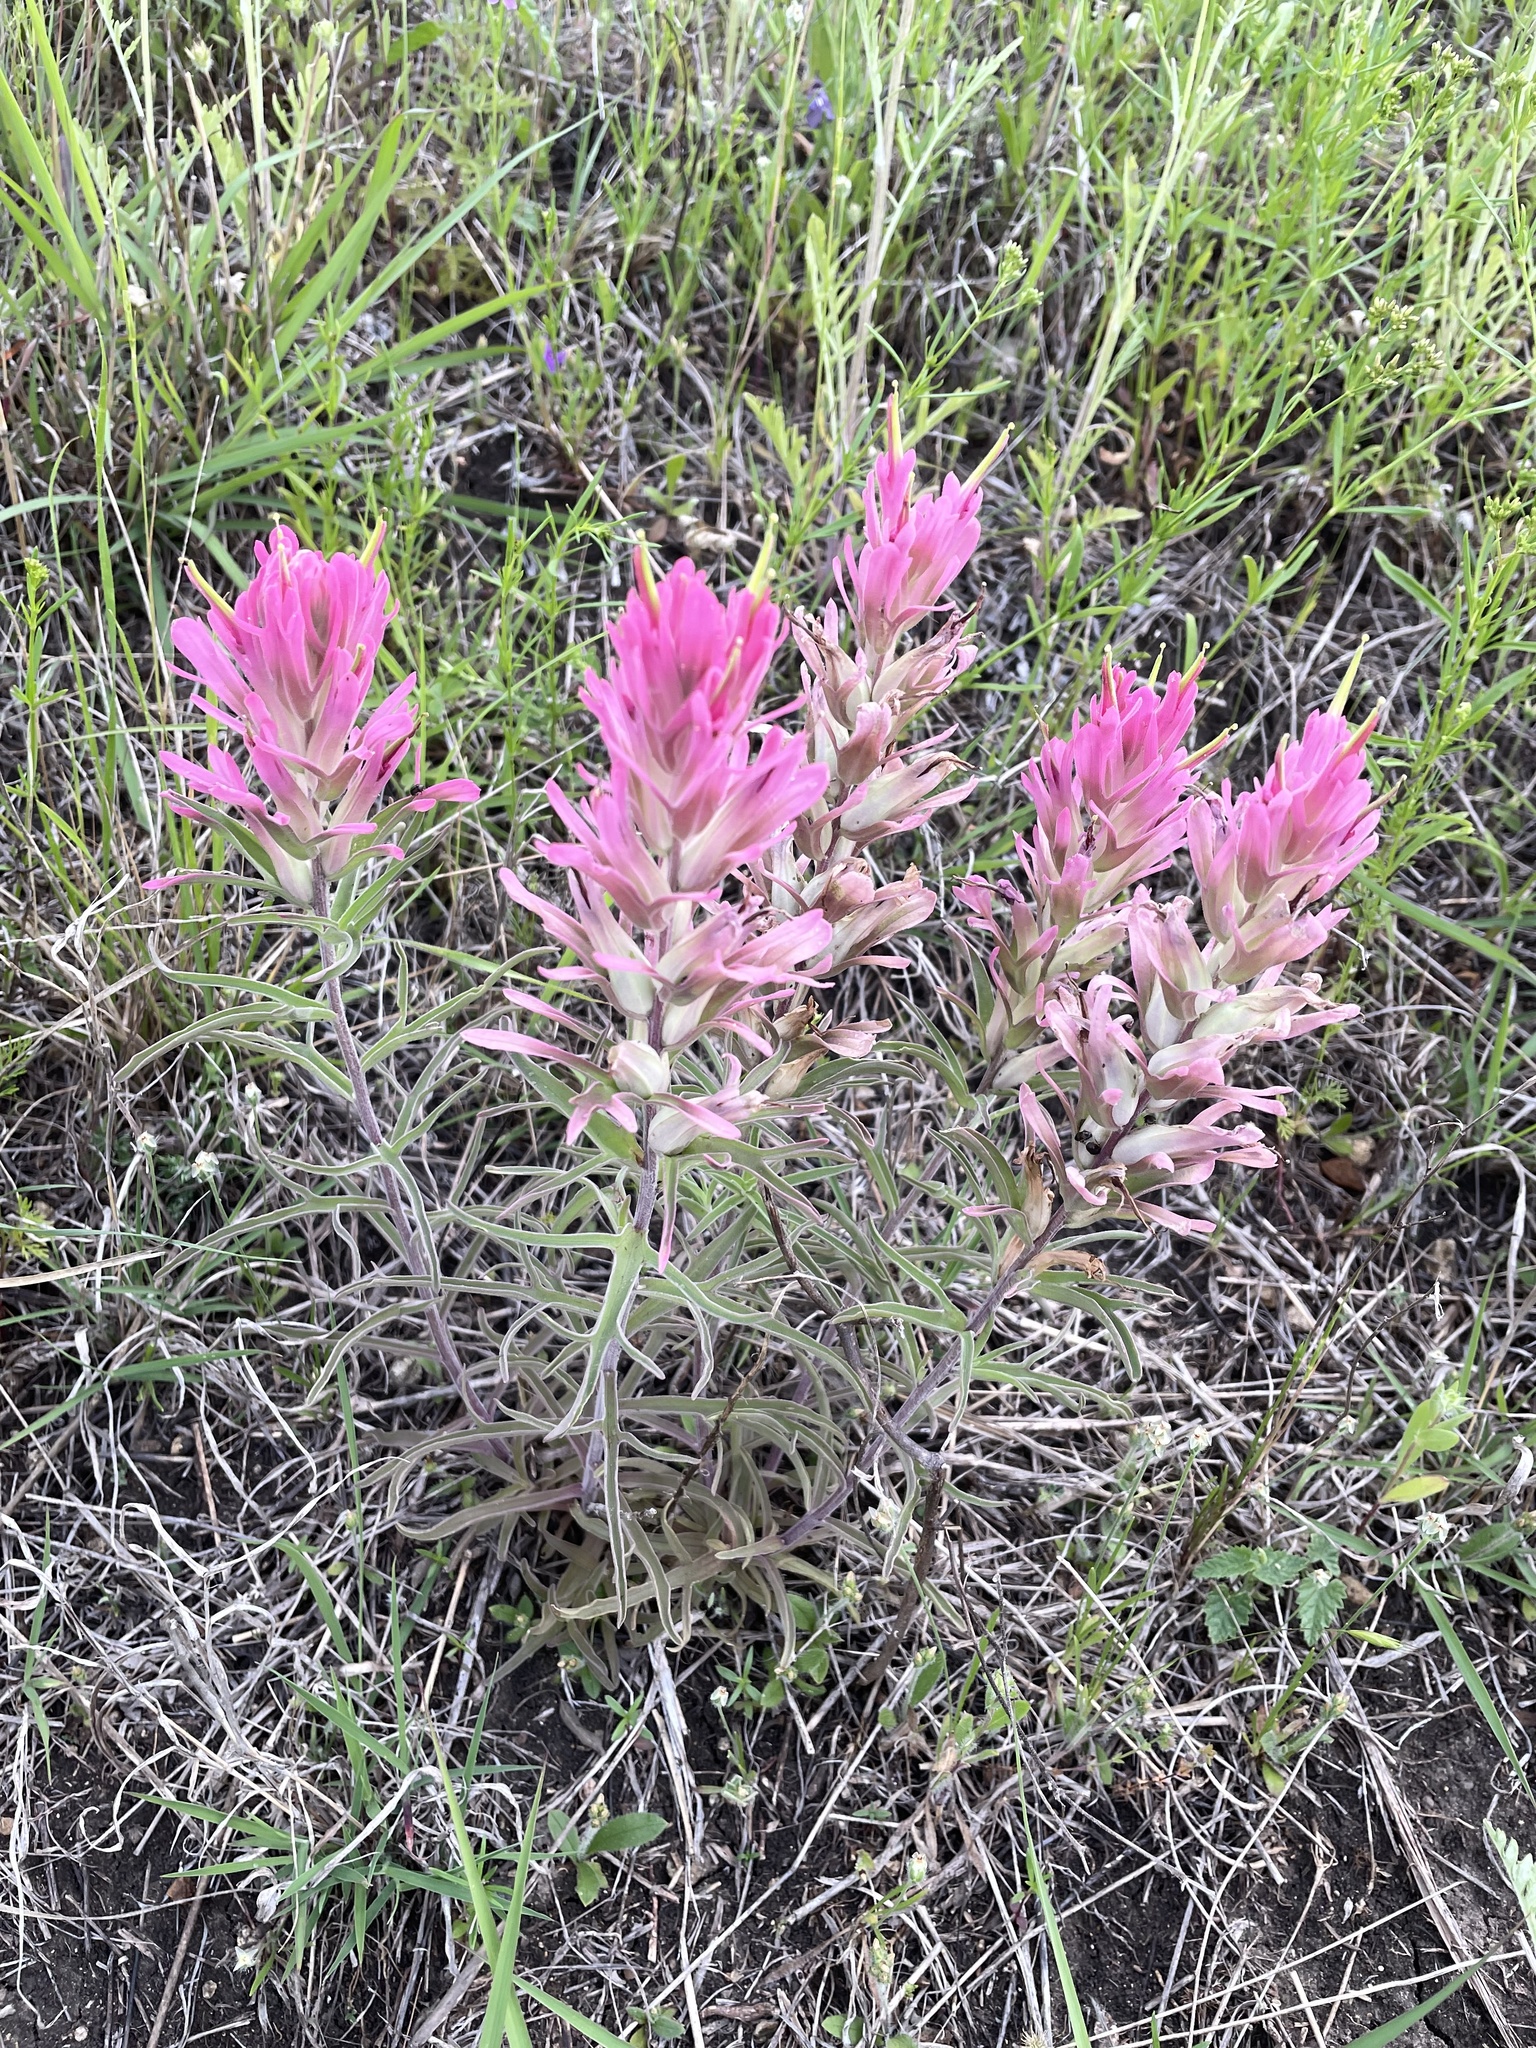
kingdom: Plantae
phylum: Tracheophyta
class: Magnoliopsida
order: Lamiales
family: Orobanchaceae
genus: Castilleja
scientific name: Castilleja purpurea
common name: Plains paintbrush
